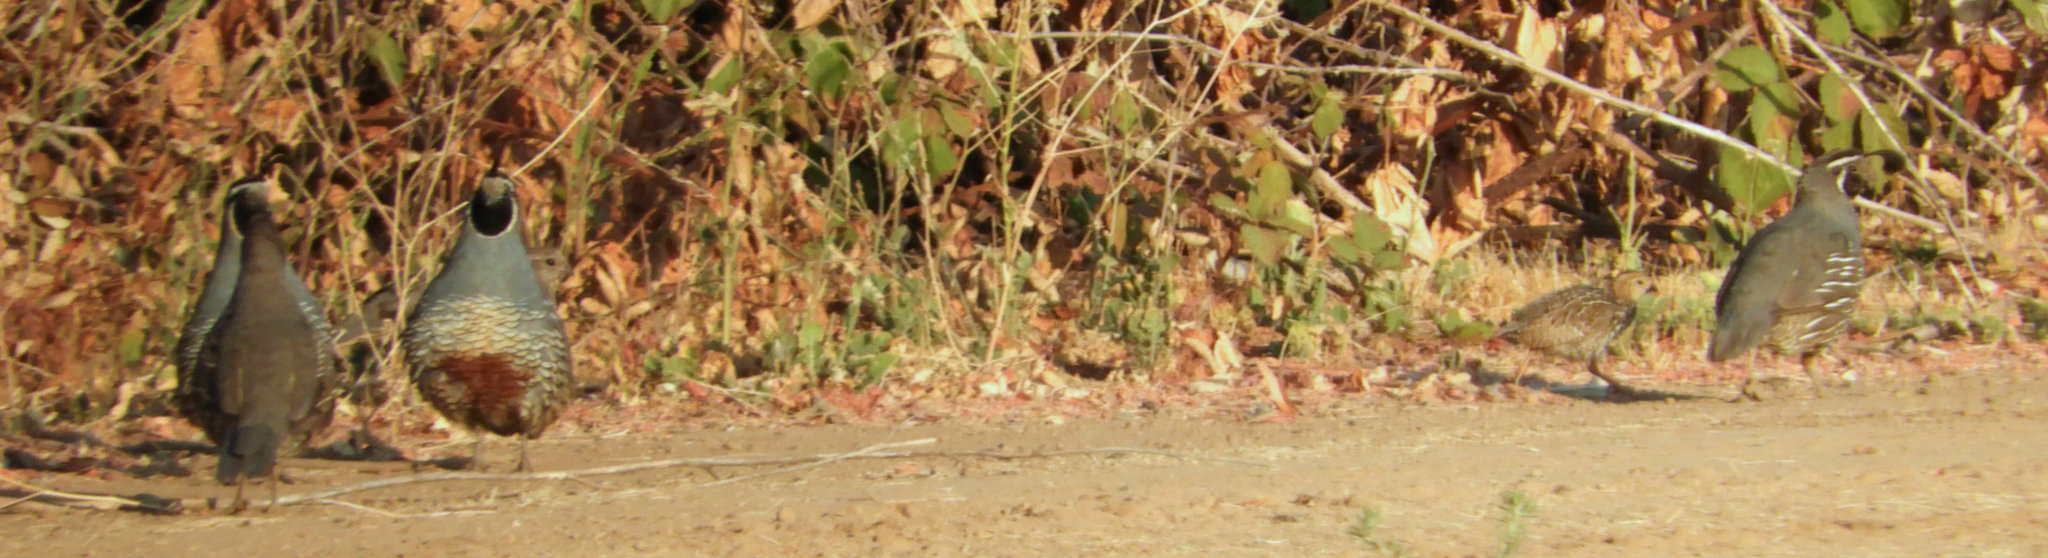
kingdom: Animalia
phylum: Chordata
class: Aves
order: Galliformes
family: Odontophoridae
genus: Callipepla
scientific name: Callipepla californica
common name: California quail
